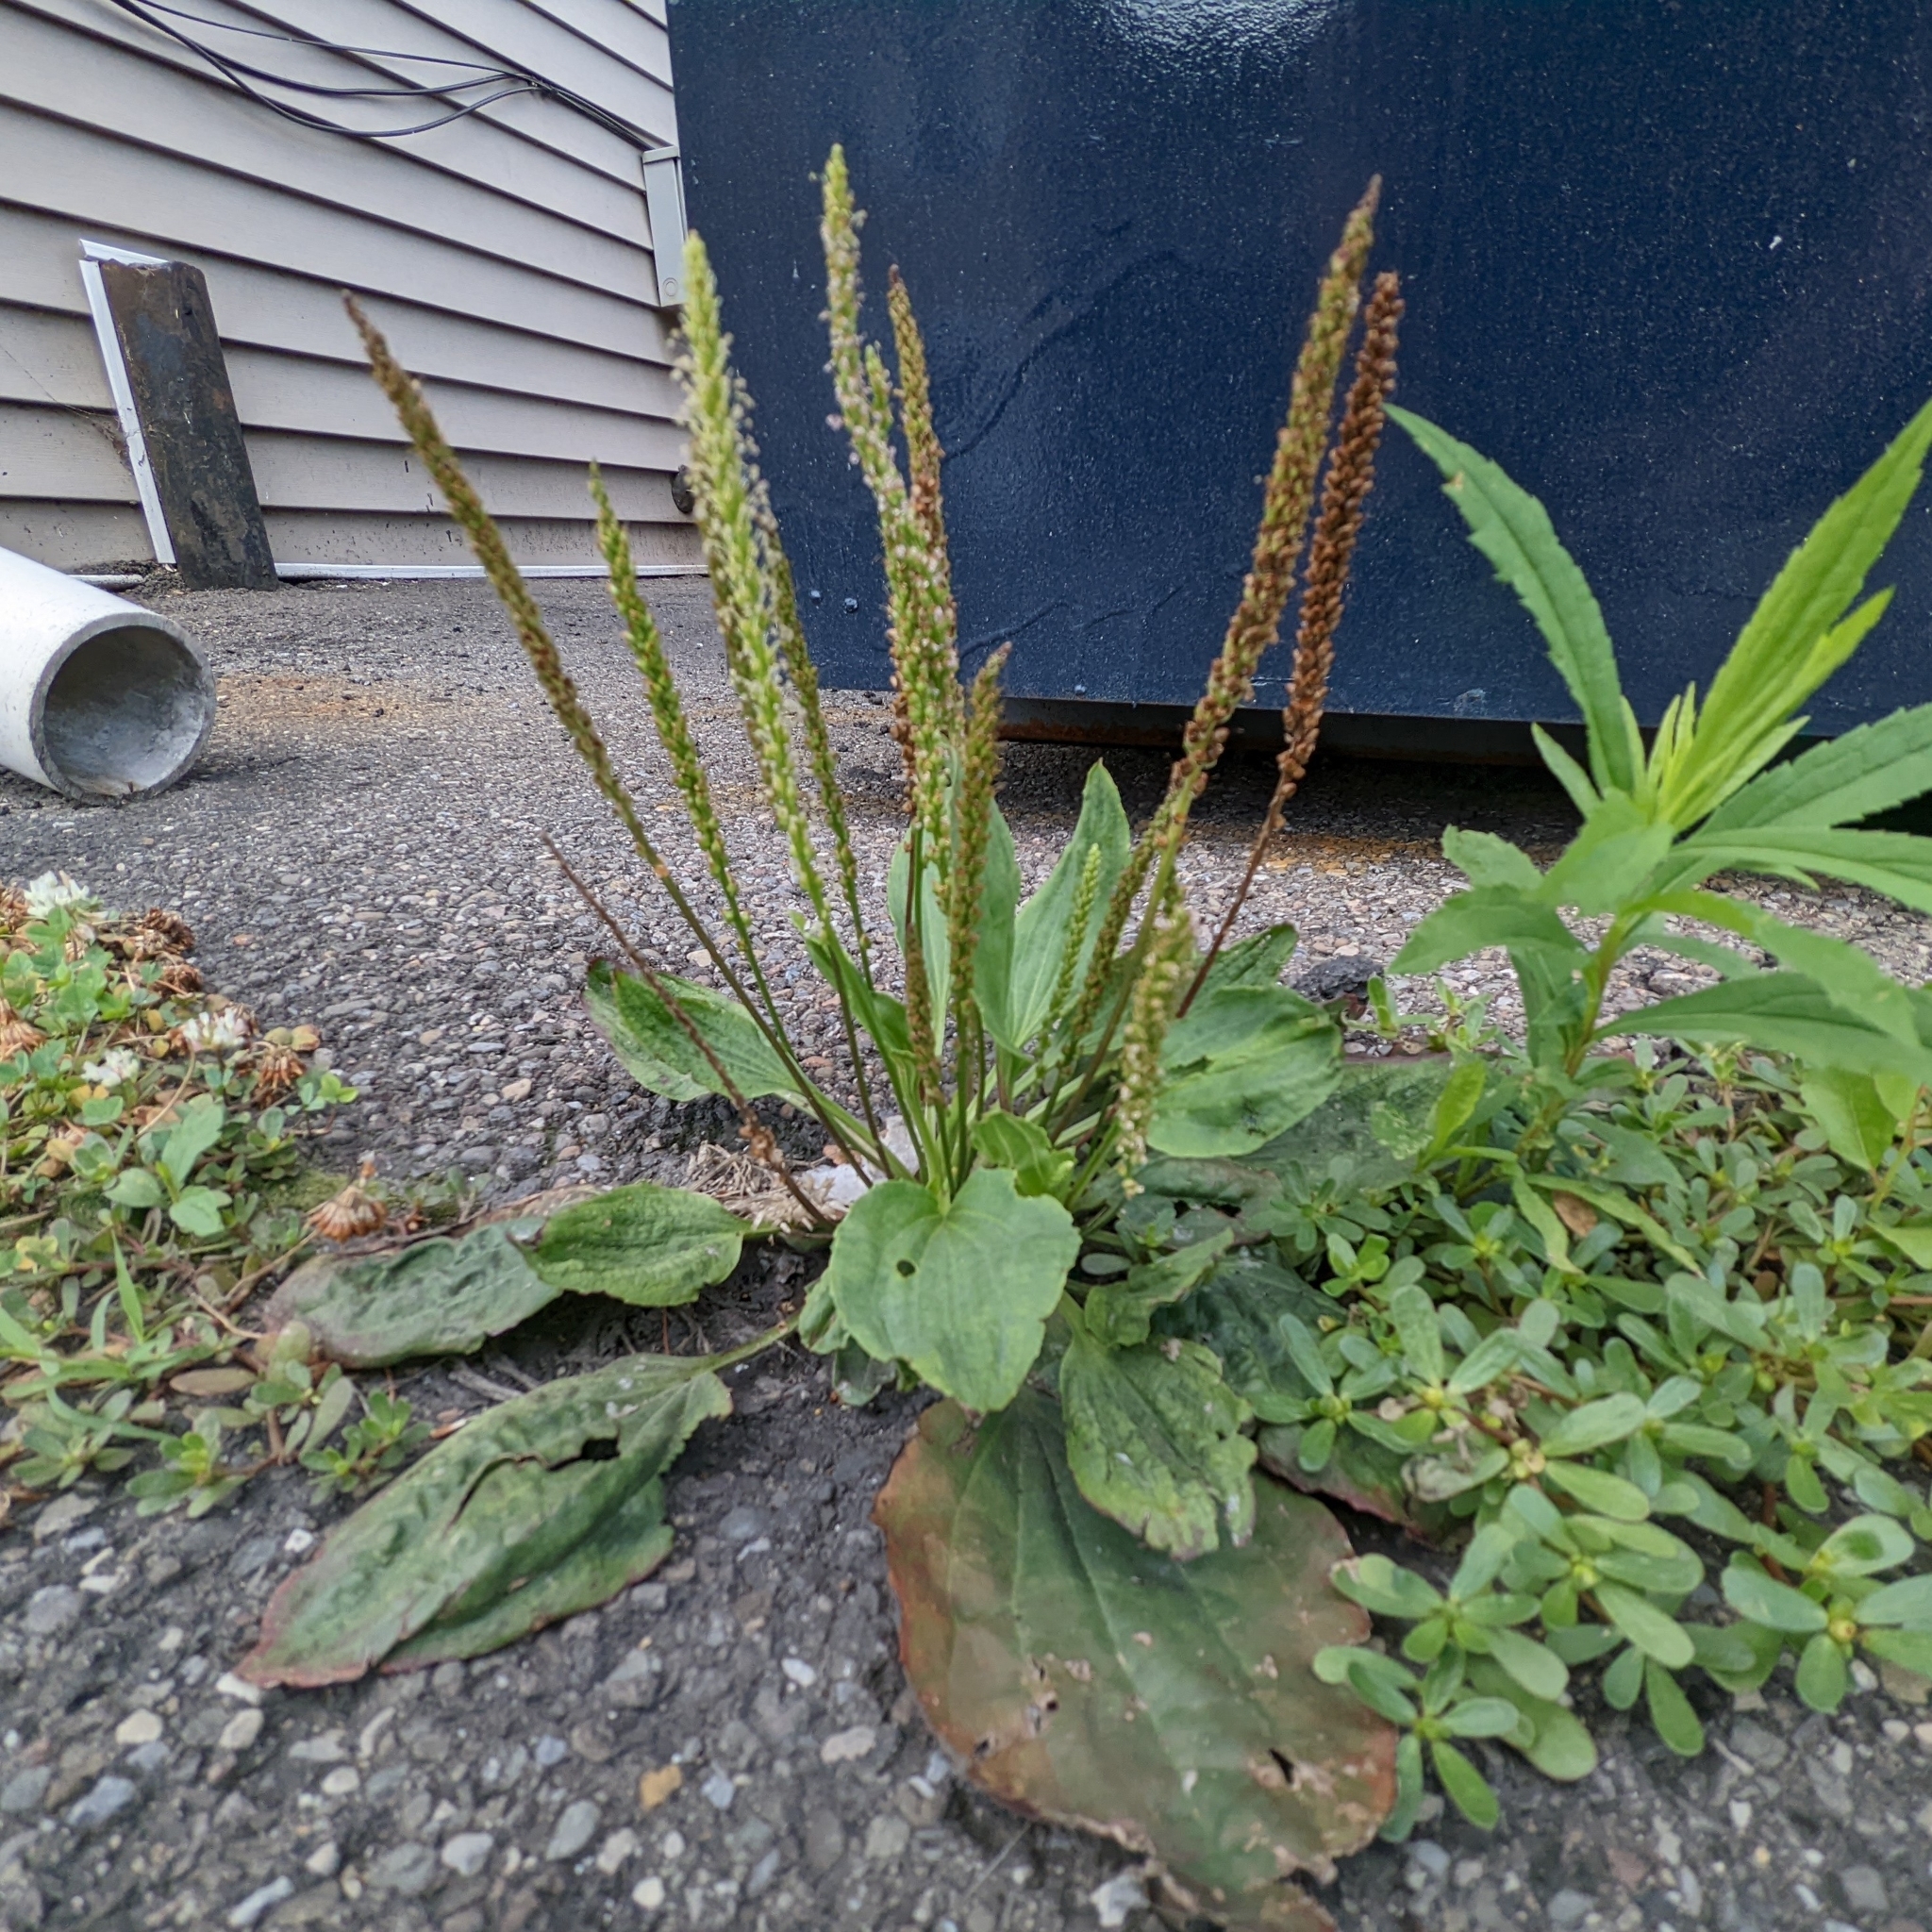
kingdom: Plantae
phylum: Tracheophyta
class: Magnoliopsida
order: Lamiales
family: Plantaginaceae
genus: Plantago
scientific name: Plantago major
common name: Common plantain
